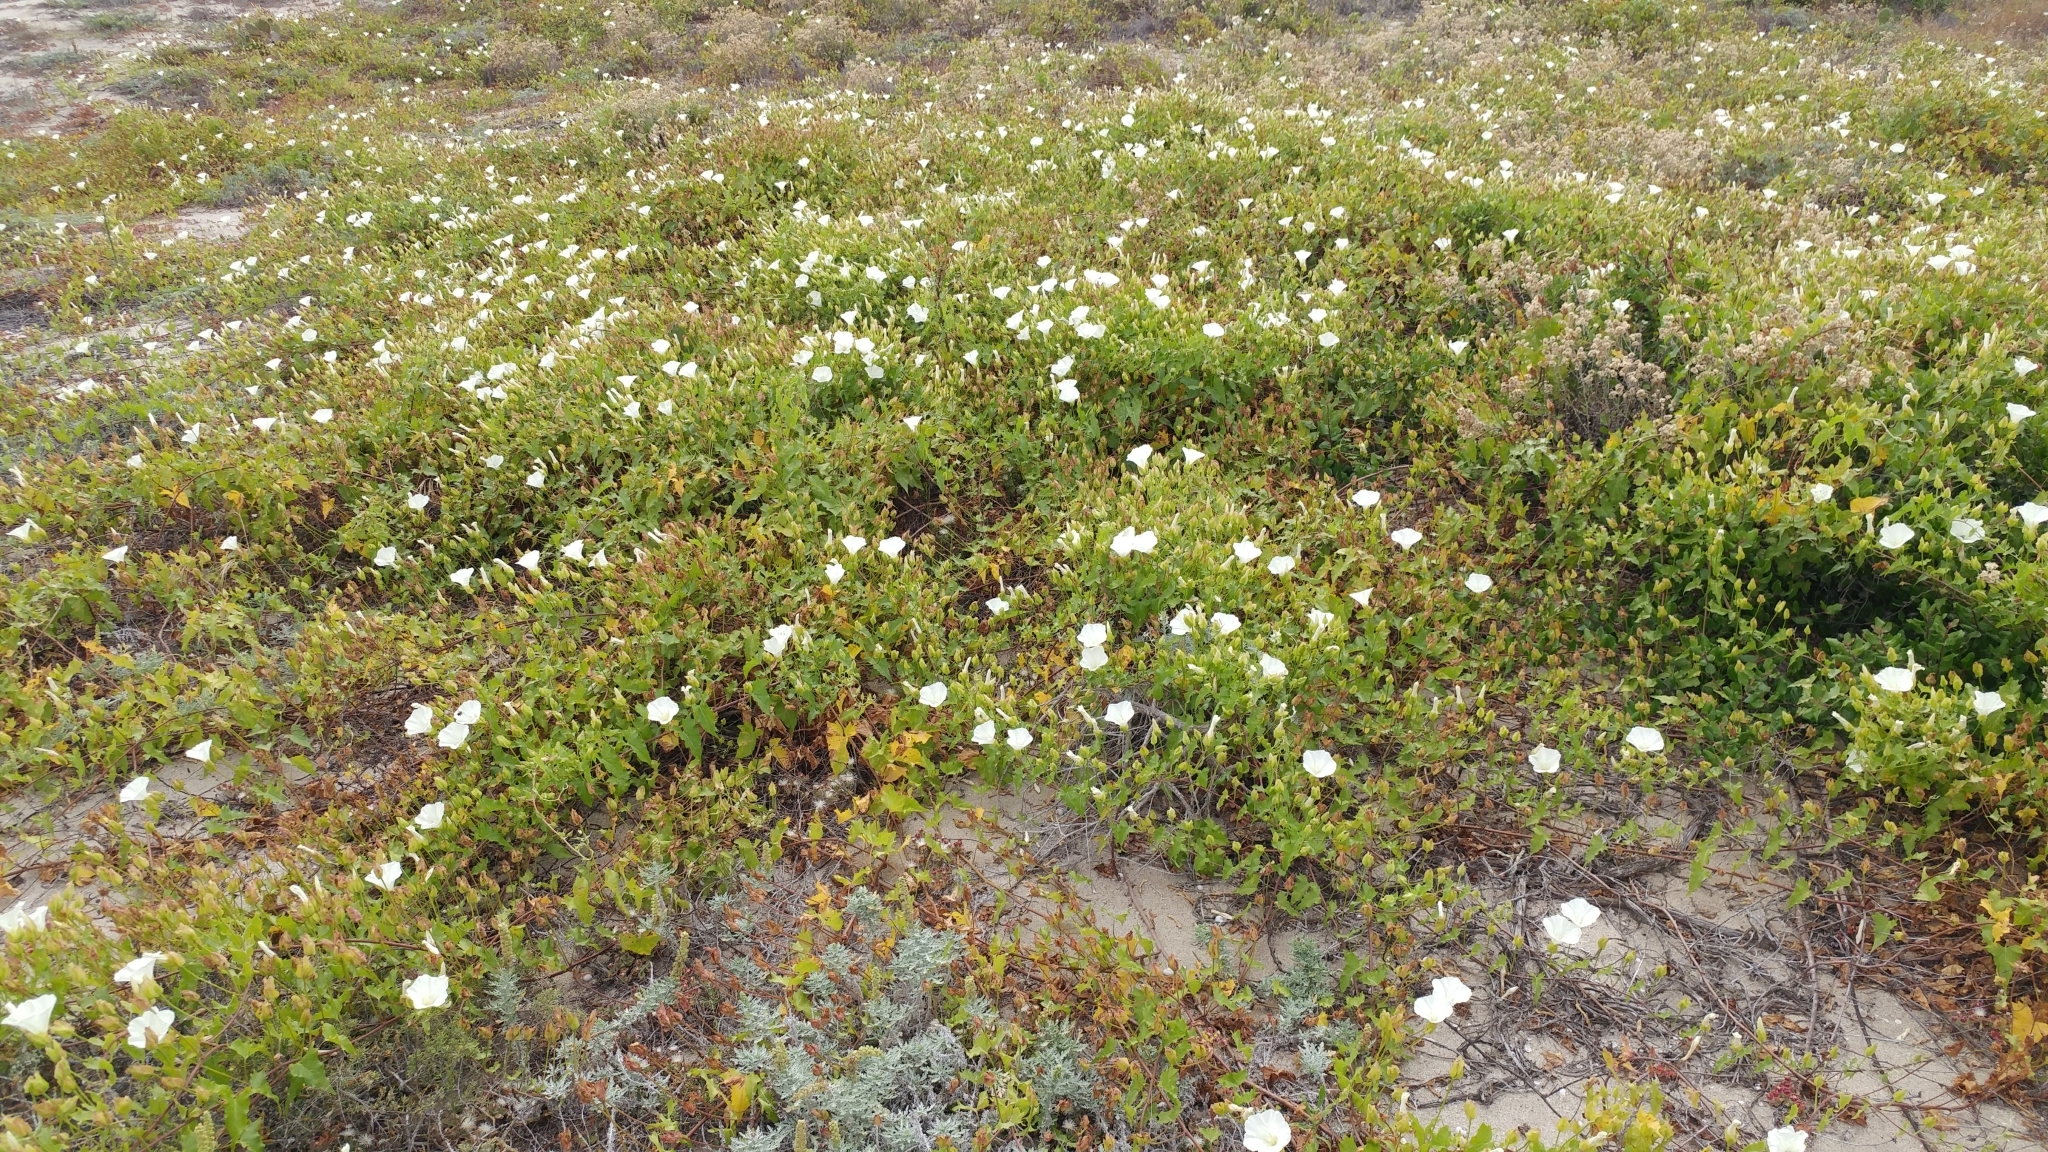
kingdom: Plantae
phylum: Tracheophyta
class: Magnoliopsida
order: Solanales
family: Convolvulaceae
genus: Calystegia
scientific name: Calystegia macrostegia
